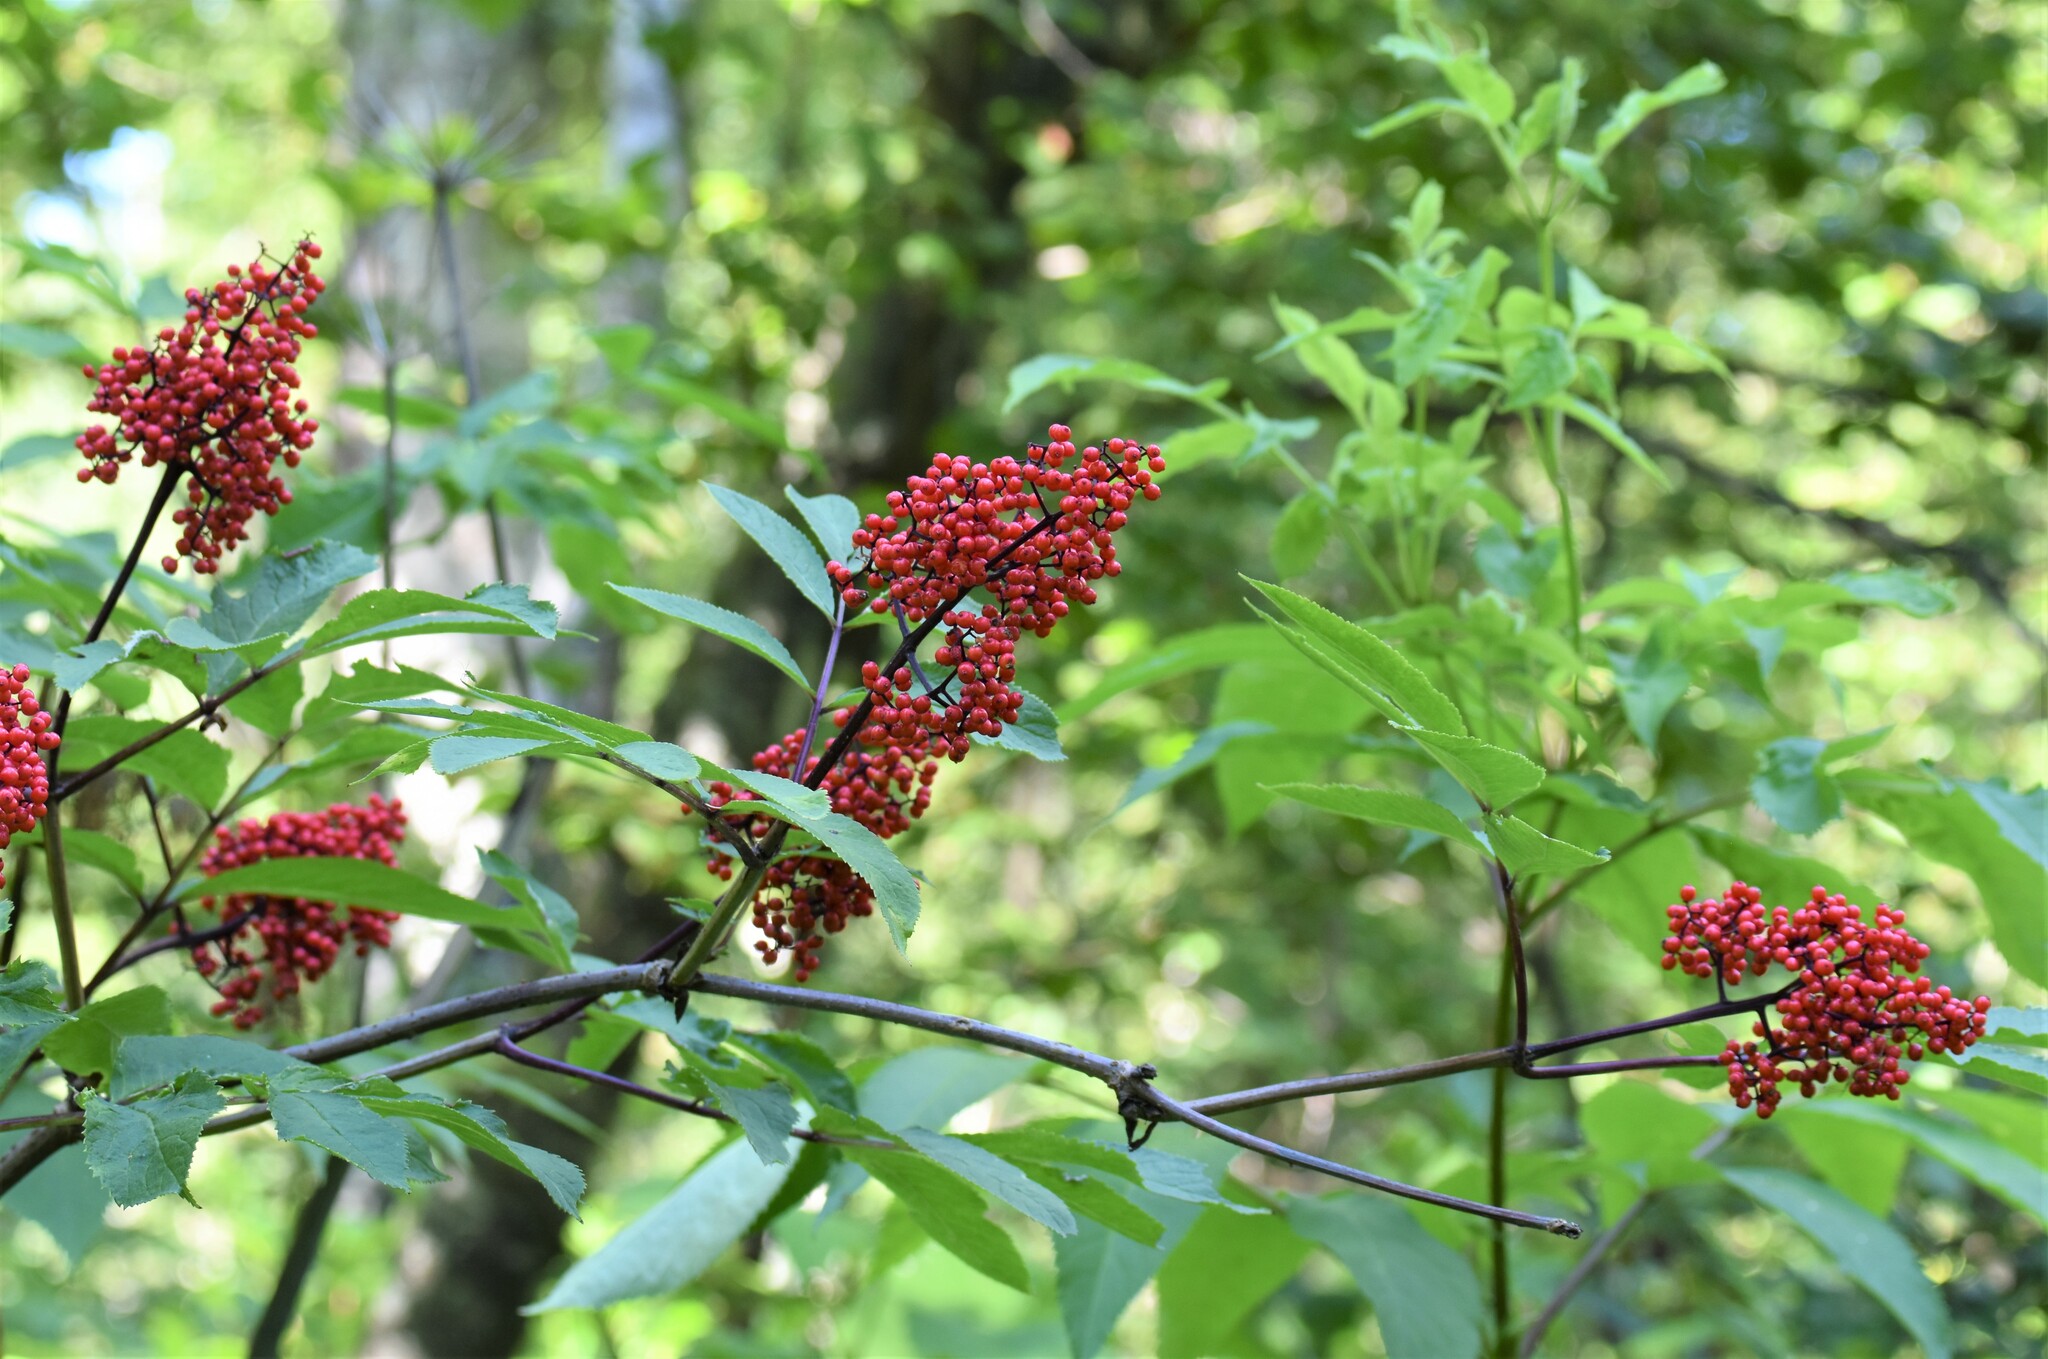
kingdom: Plantae
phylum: Tracheophyta
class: Magnoliopsida
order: Dipsacales
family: Viburnaceae
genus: Sambucus
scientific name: Sambucus racemosa
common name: Red-berried elder
